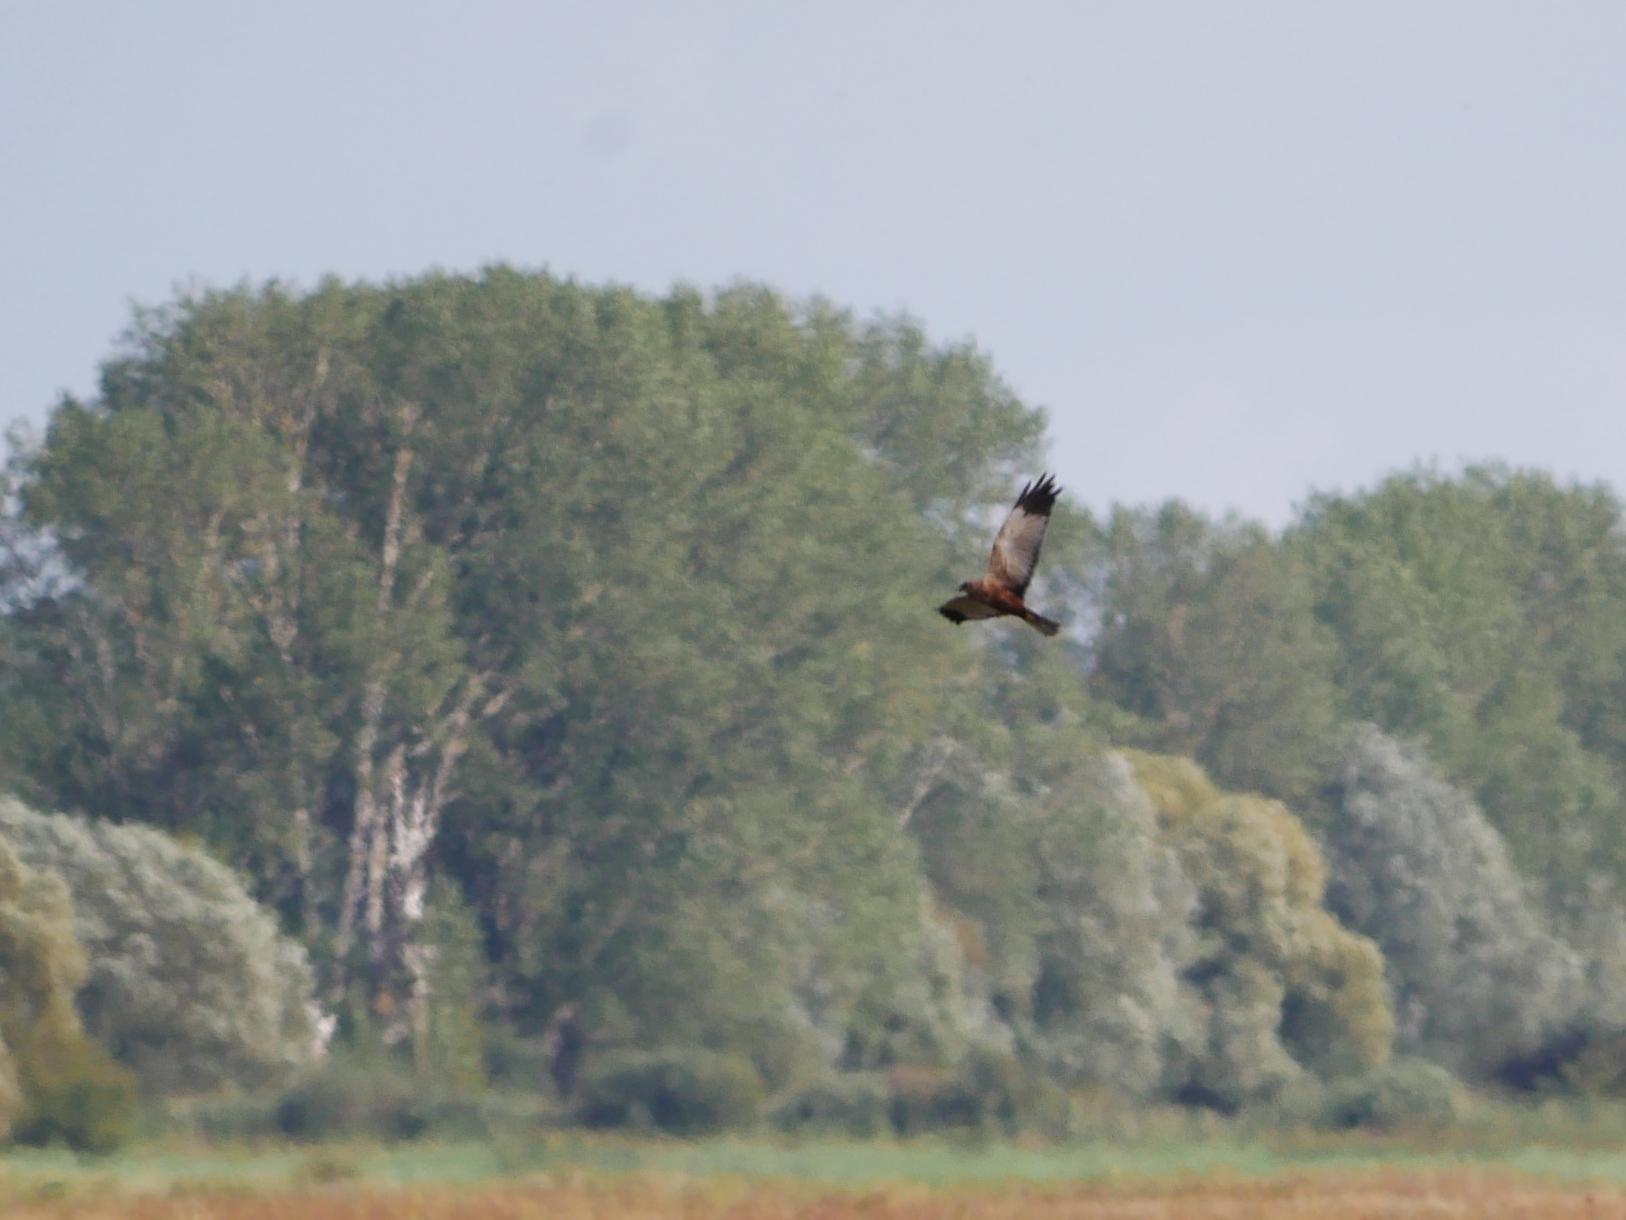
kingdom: Animalia
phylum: Chordata
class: Aves
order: Accipitriformes
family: Accipitridae
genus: Circus
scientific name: Circus aeruginosus
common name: Western marsh harrier
